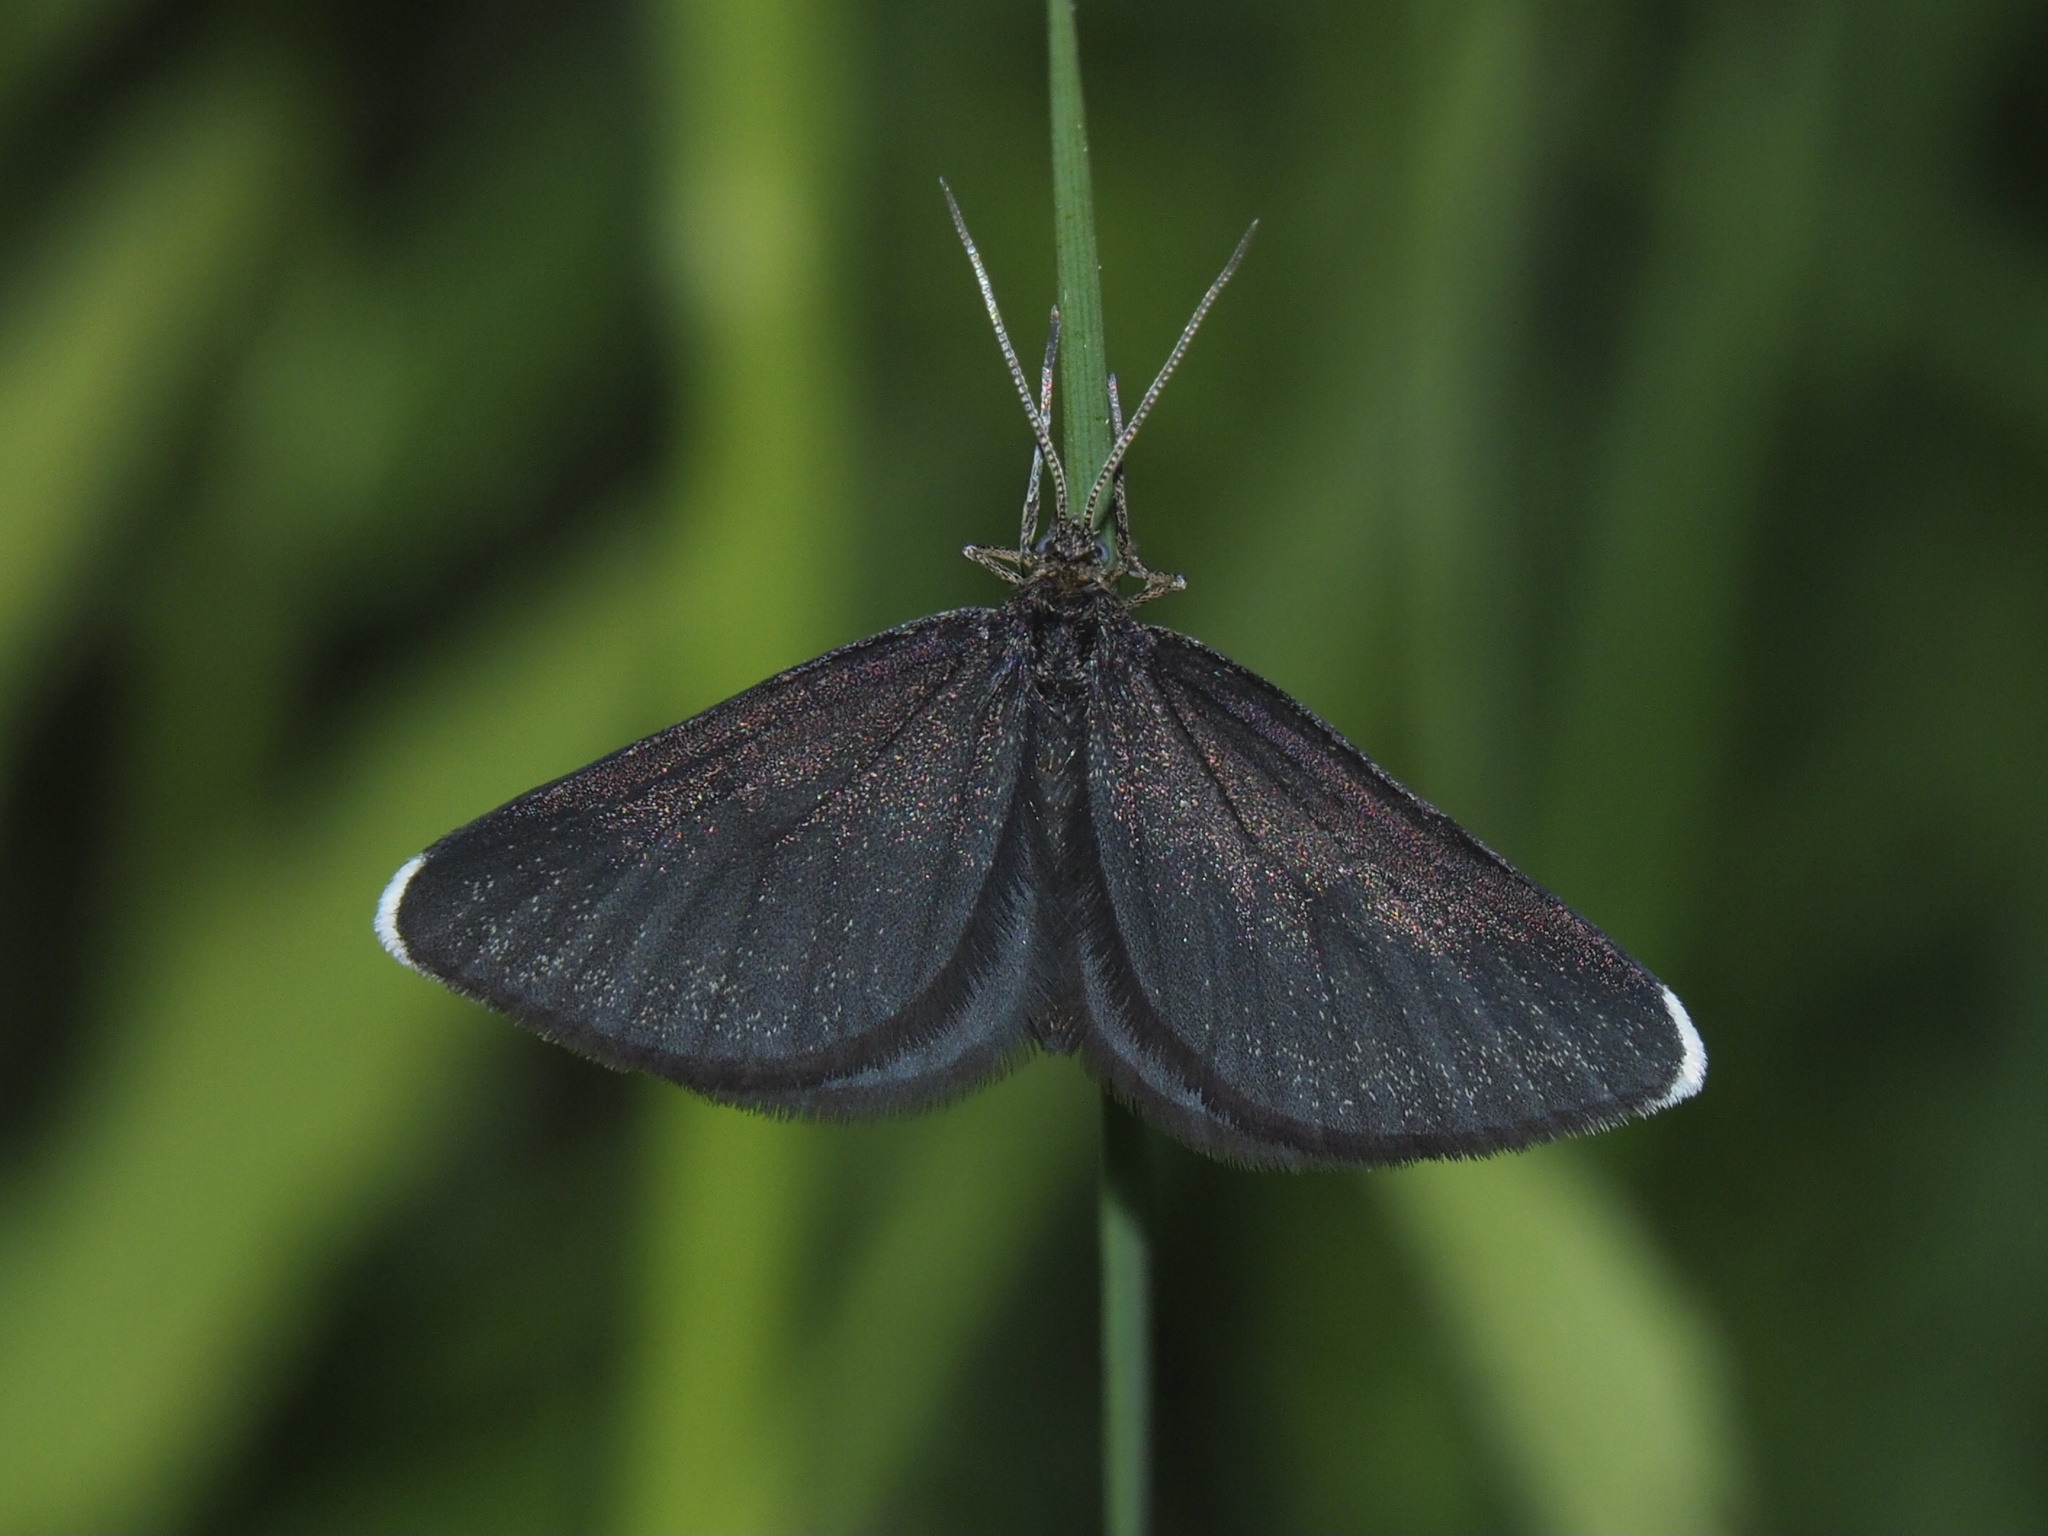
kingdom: Animalia
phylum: Arthropoda
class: Insecta
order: Lepidoptera
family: Geometridae
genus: Odezia
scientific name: Odezia atrata
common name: Chimney sweeper
